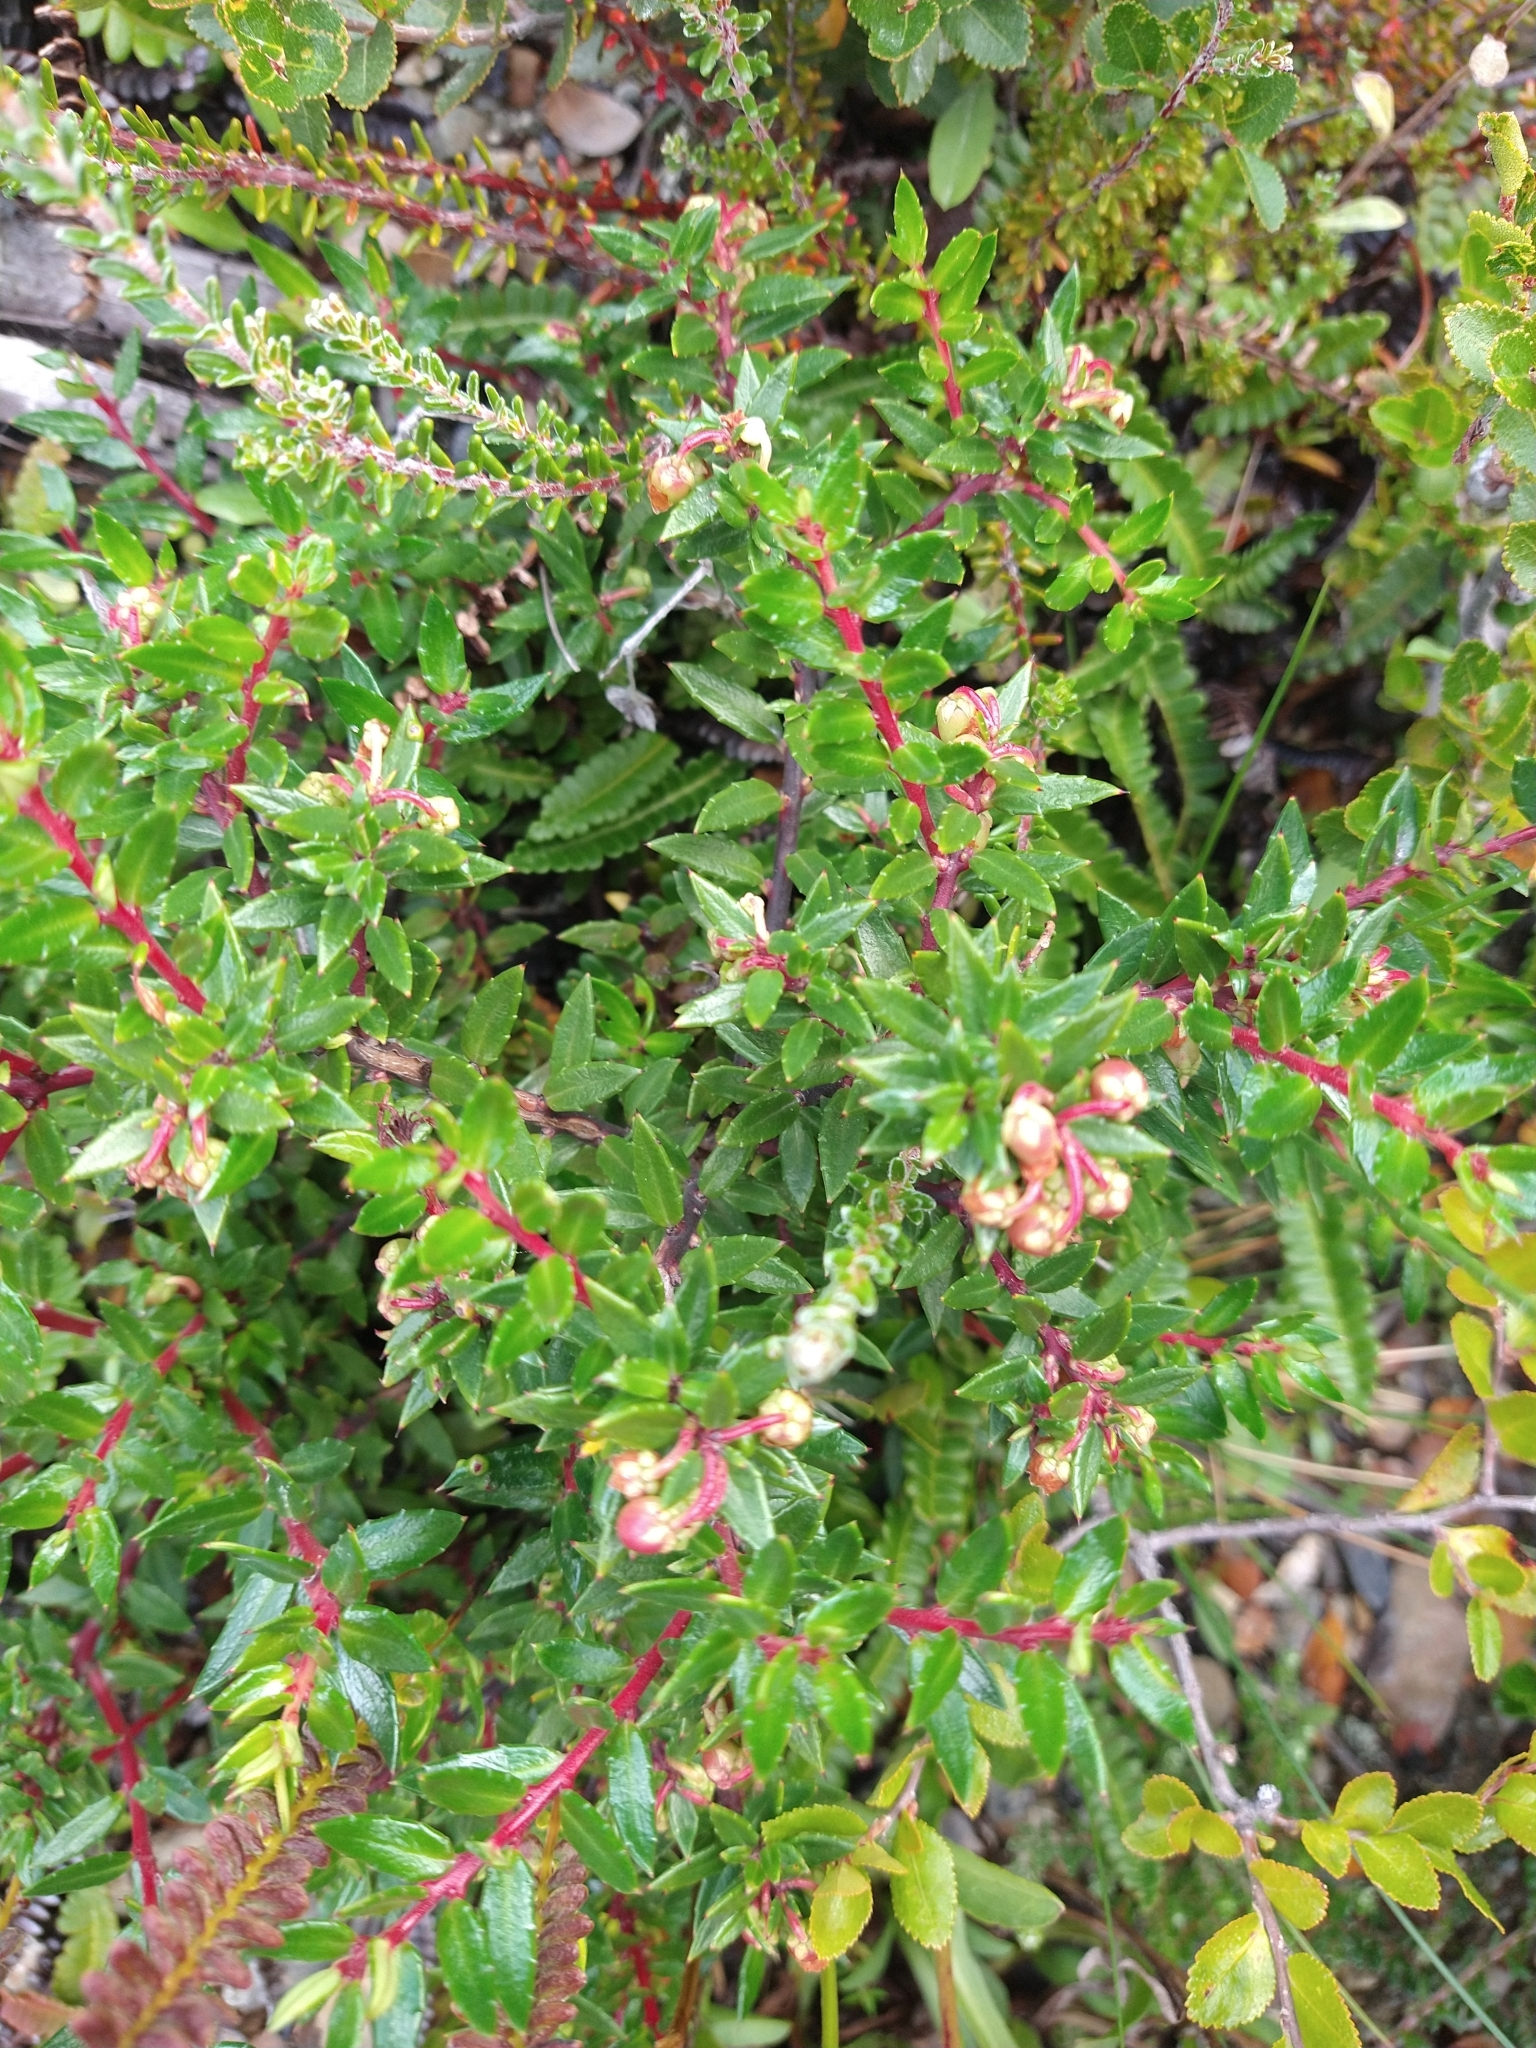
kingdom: Plantae
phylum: Tracheophyta
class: Magnoliopsida
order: Ericales
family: Ericaceae
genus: Gaultheria
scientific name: Gaultheria mucronata
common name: Prickly heath
